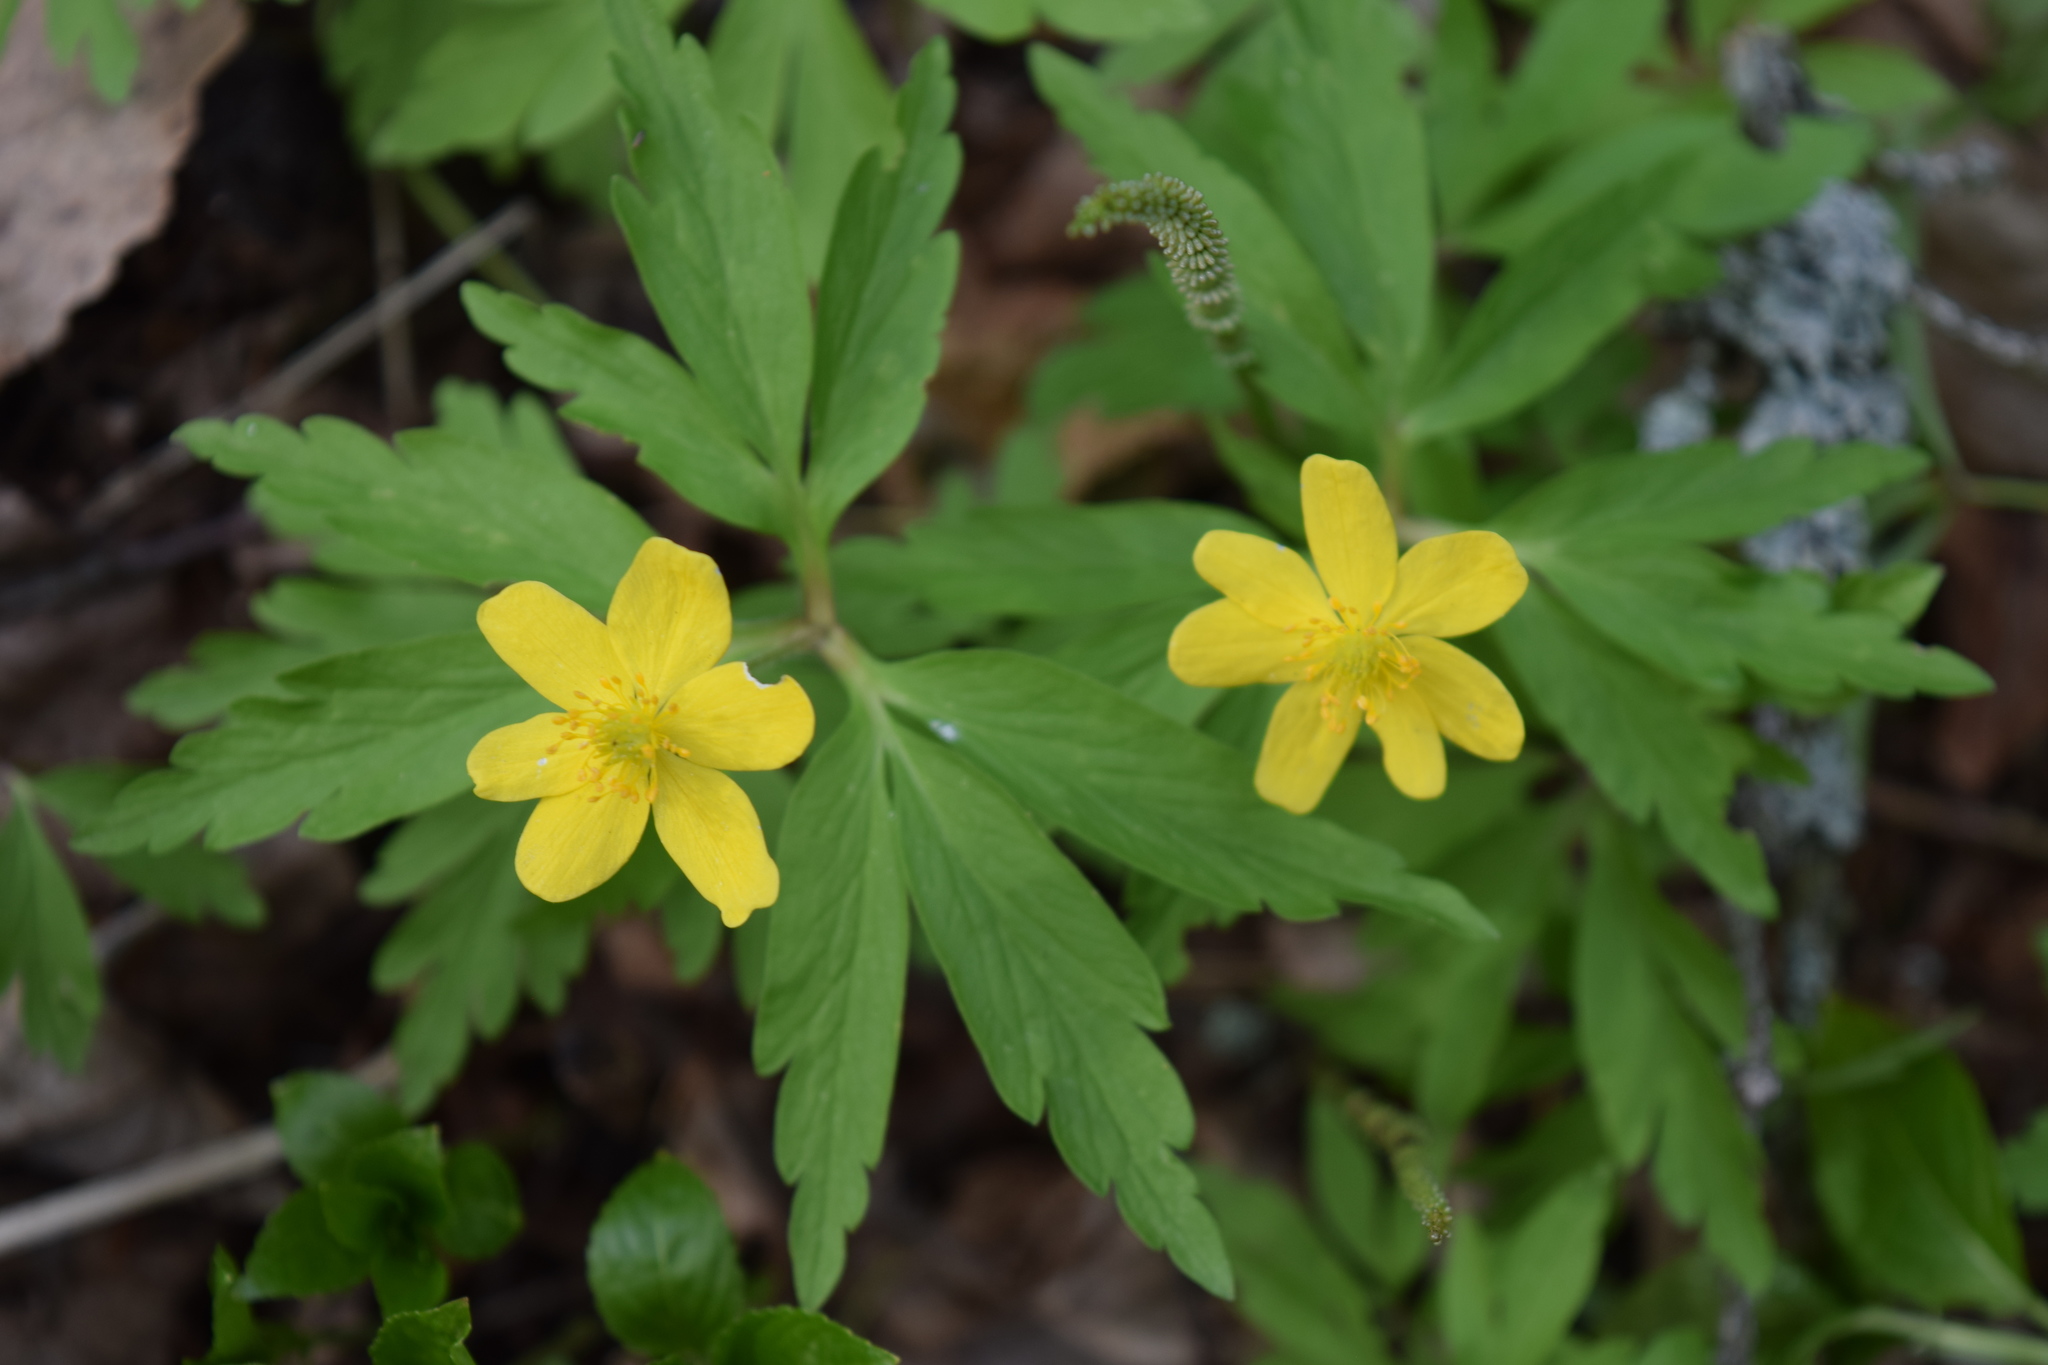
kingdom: Plantae
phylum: Tracheophyta
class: Magnoliopsida
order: Ranunculales
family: Ranunculaceae
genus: Anemone
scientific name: Anemone ranunculoides
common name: Yellow anemone
